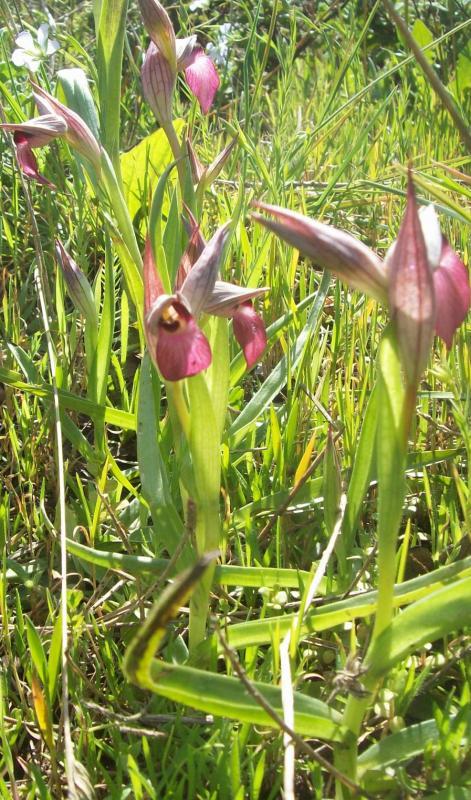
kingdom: Plantae
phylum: Tracheophyta
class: Liliopsida
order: Asparagales
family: Orchidaceae
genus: Serapias
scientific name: Serapias lingua
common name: Tongue-orchid
